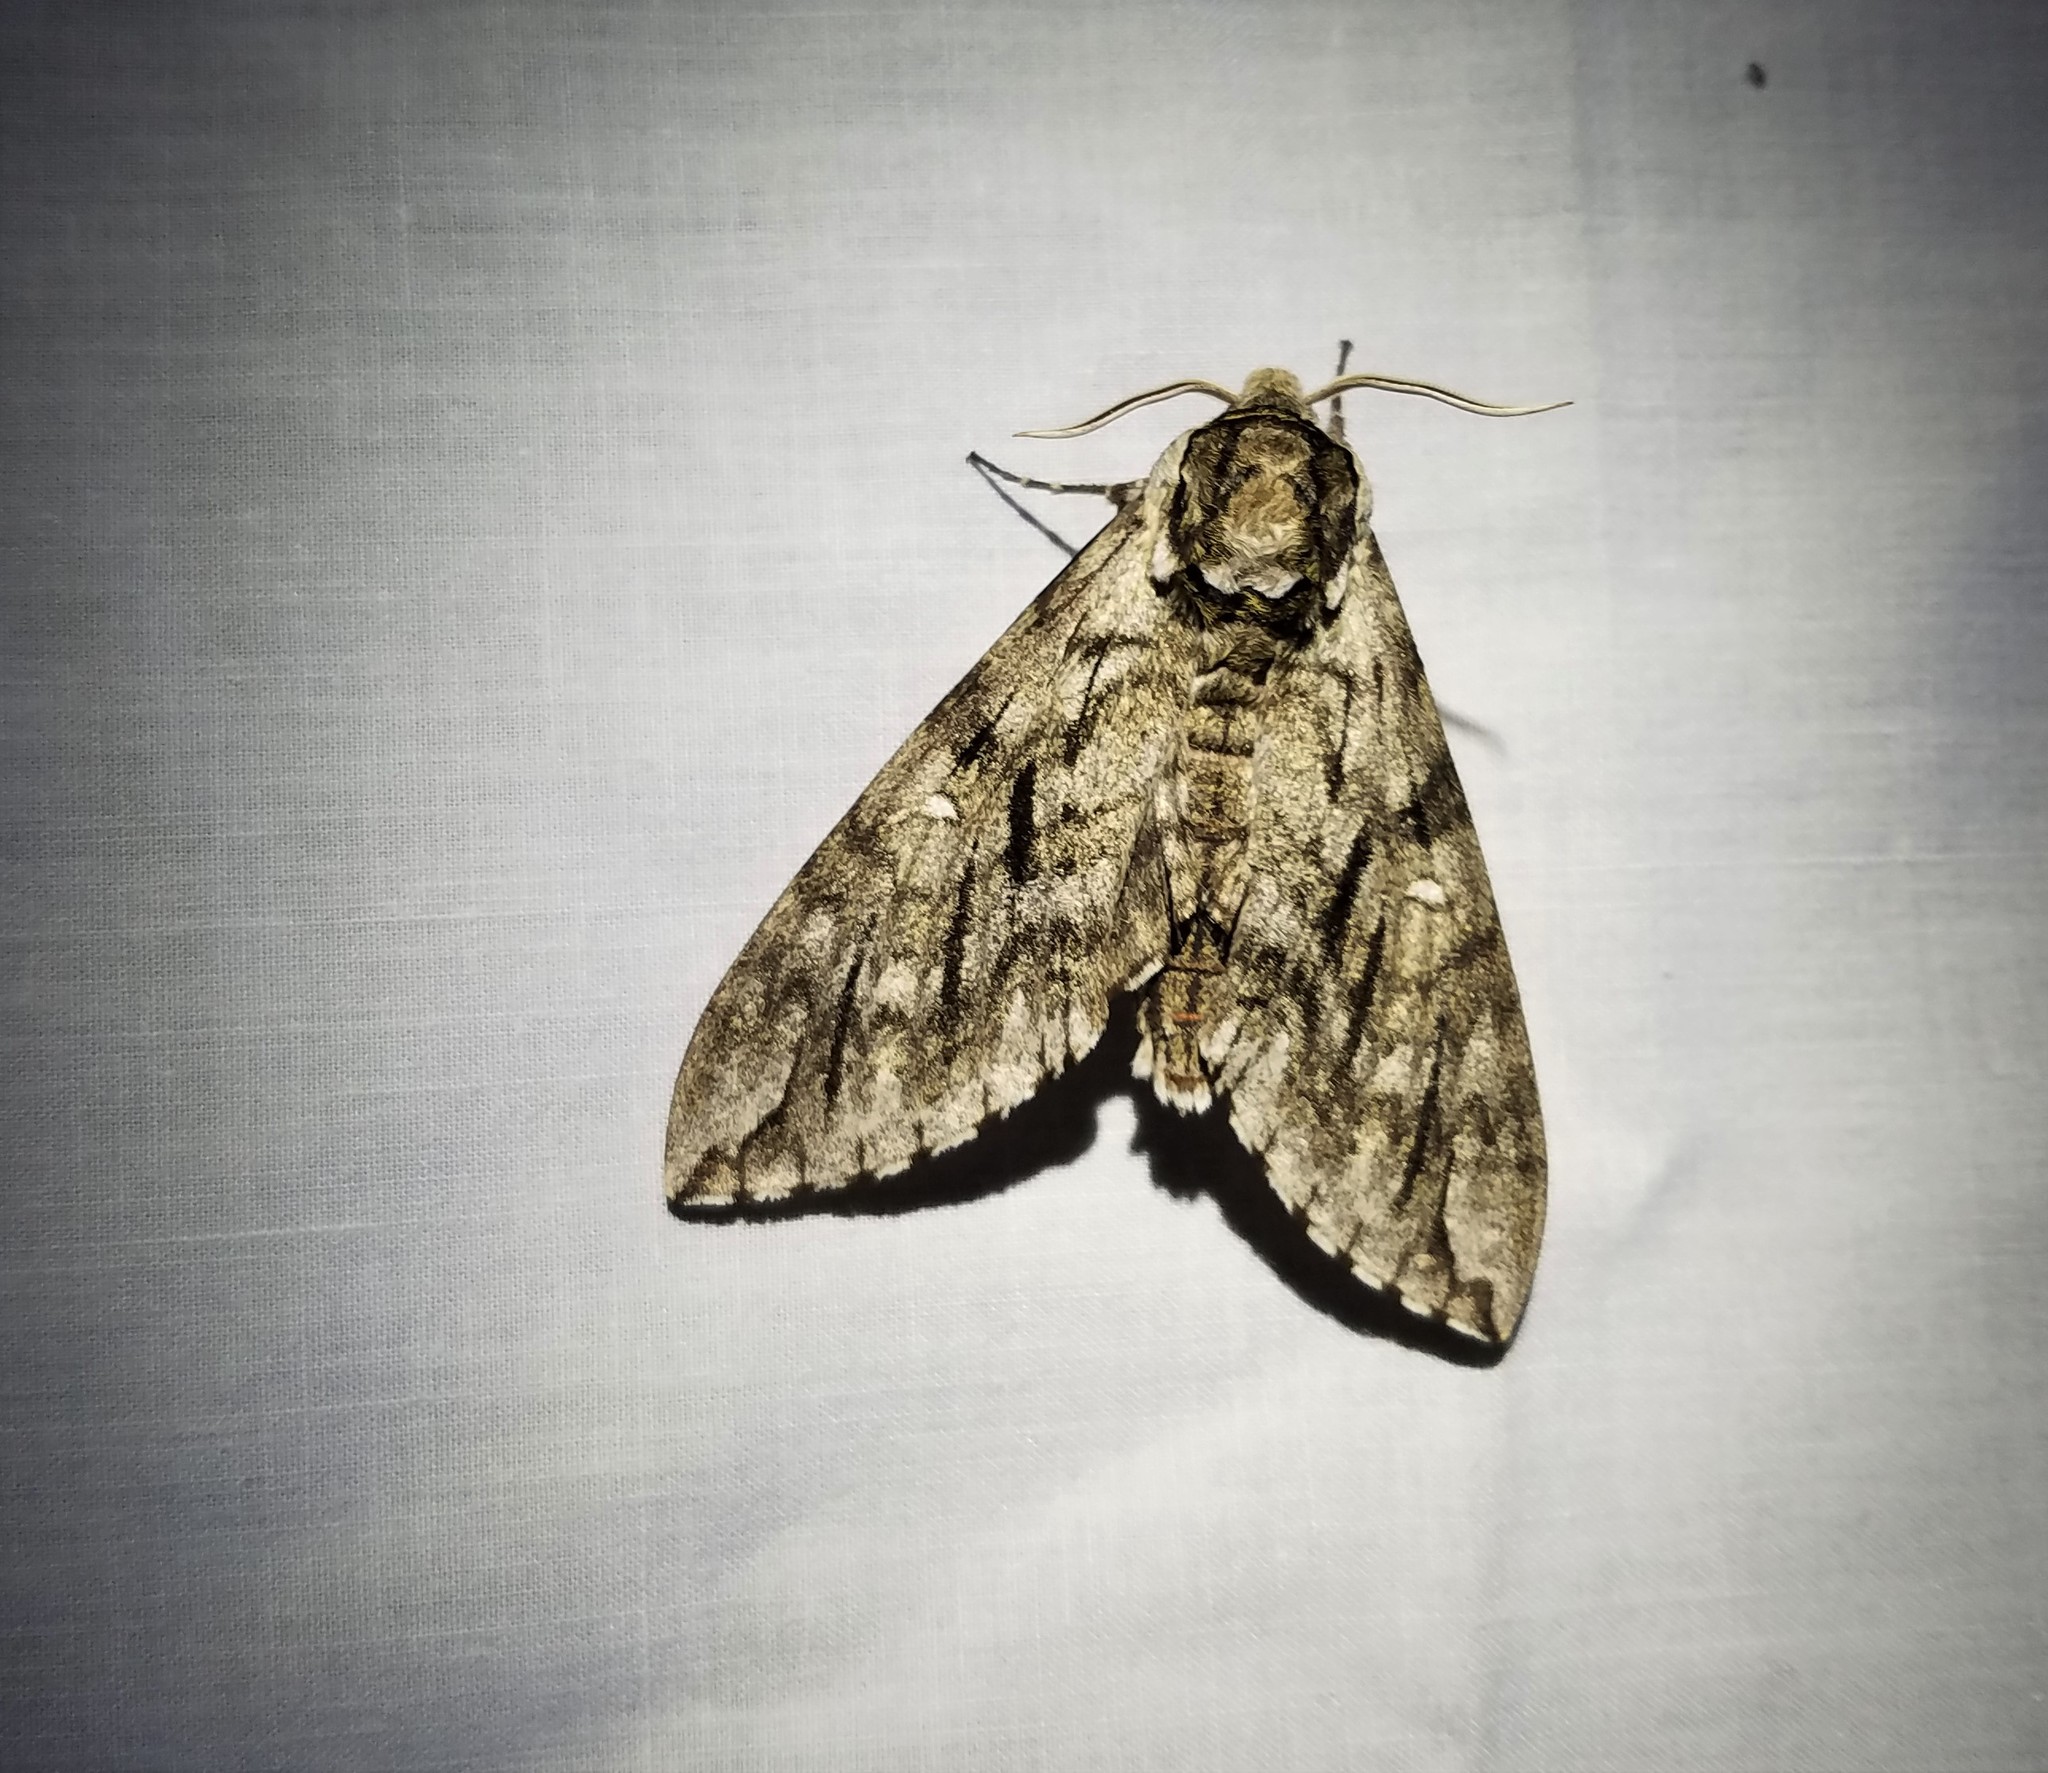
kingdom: Animalia
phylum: Arthropoda
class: Insecta
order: Lepidoptera
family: Sphingidae
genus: Ceratomia
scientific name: Ceratomia undulosa
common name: Waved sphinx
